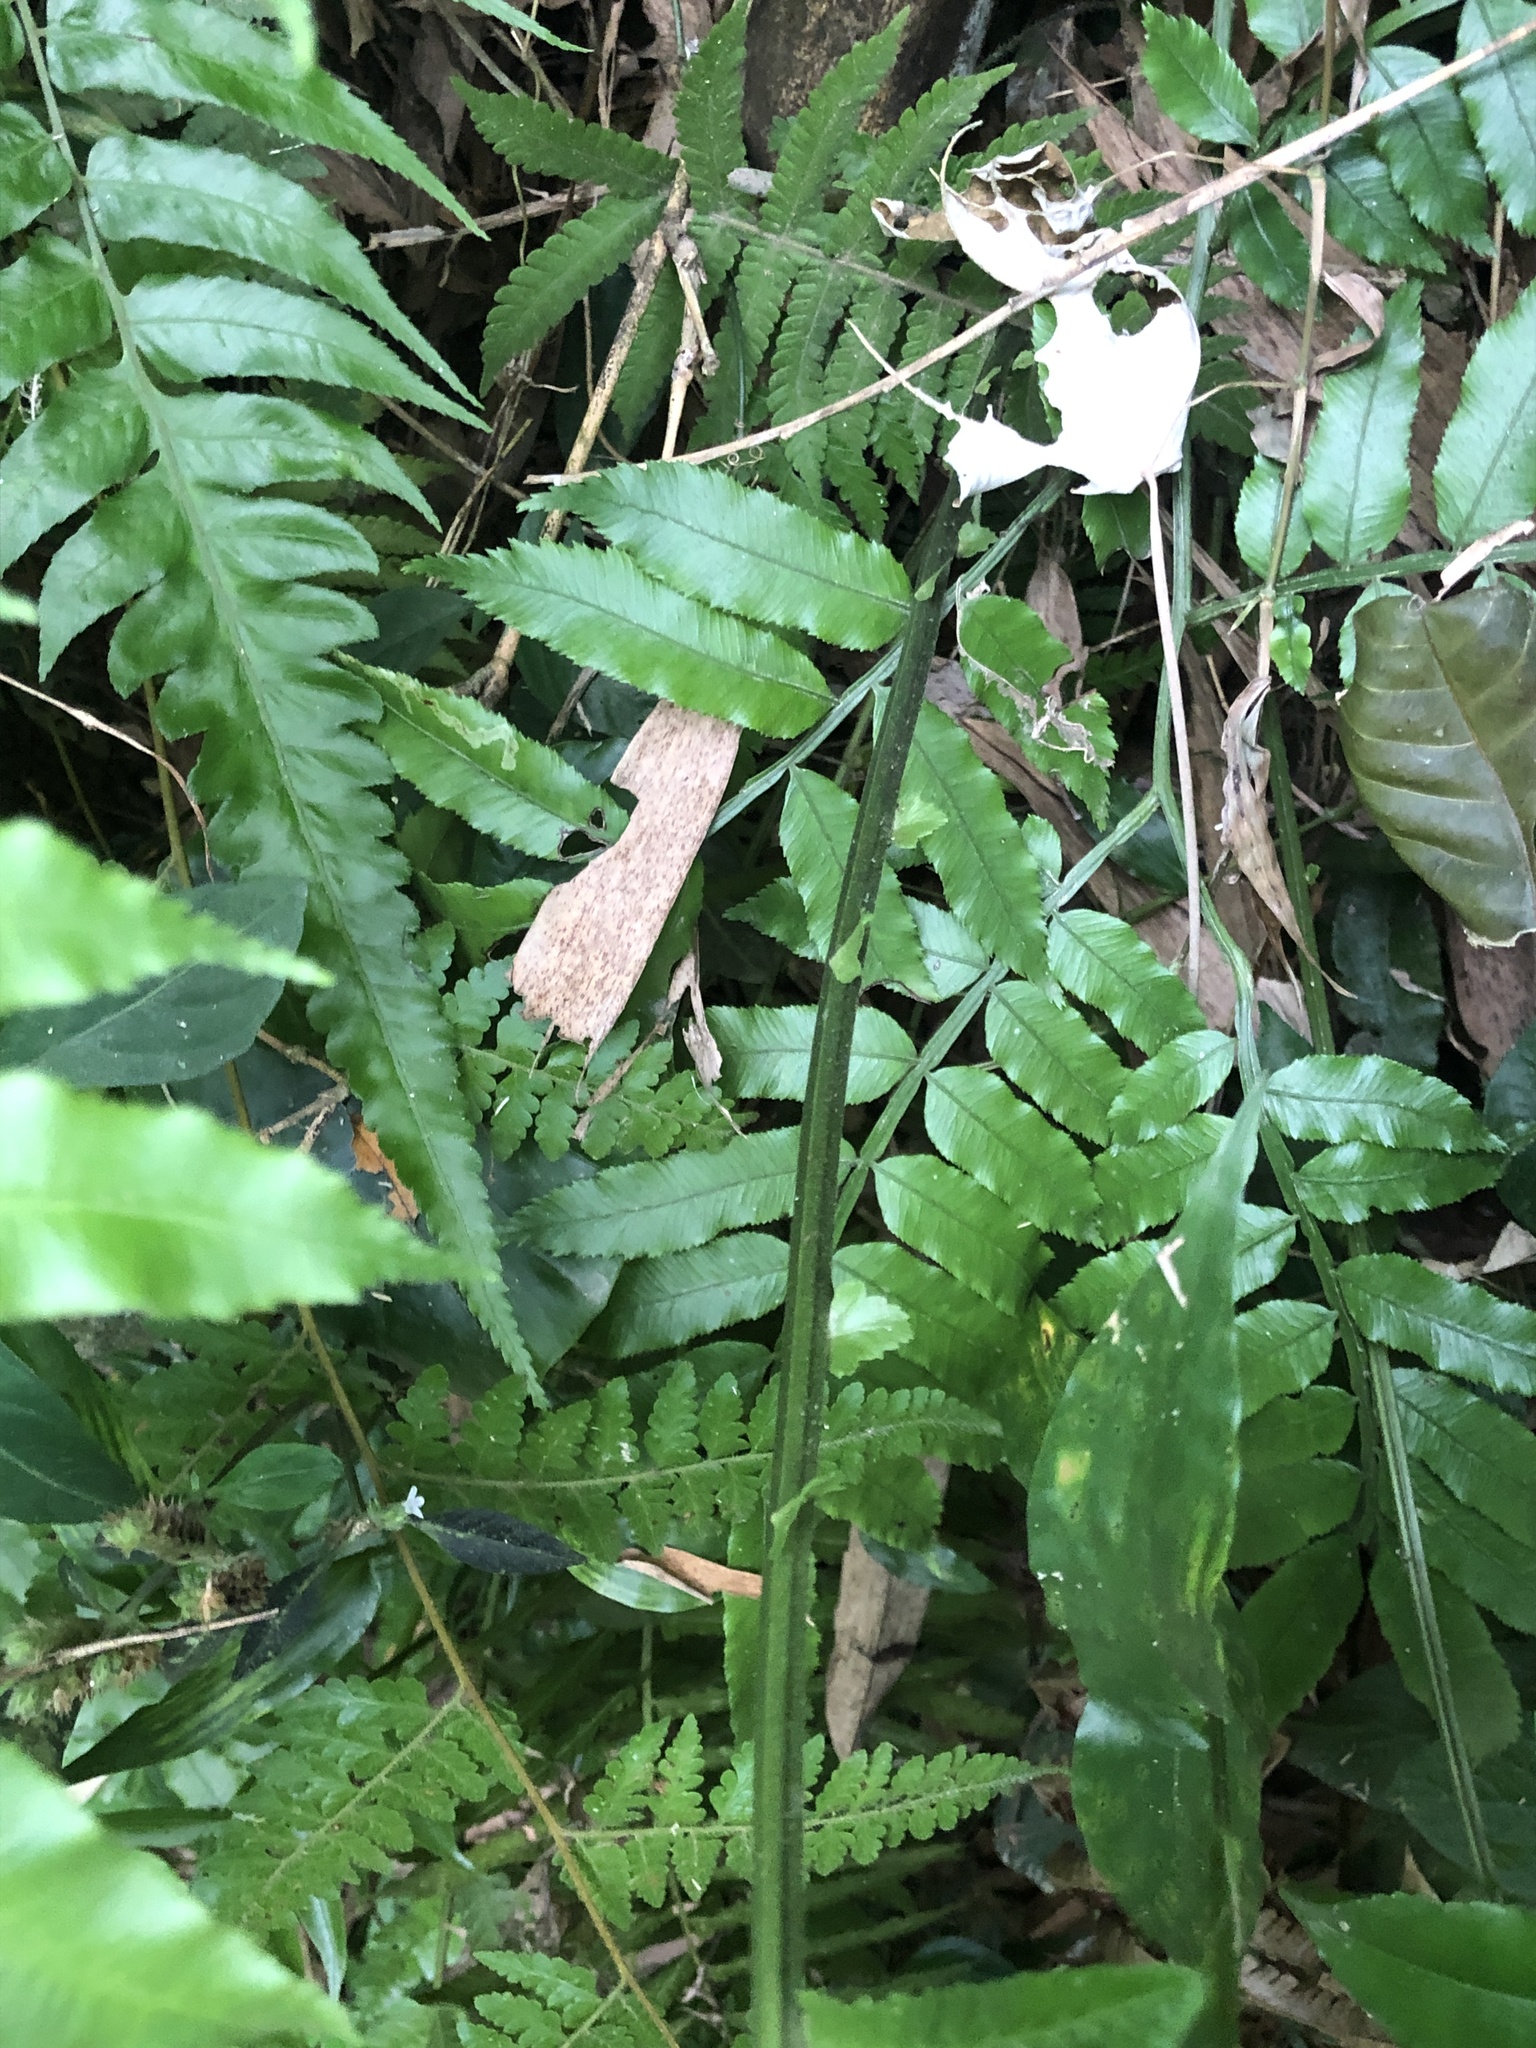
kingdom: Plantae
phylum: Tracheophyta
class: Polypodiopsida
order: Polypodiales
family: Thelypteridaceae
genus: Reholttumia
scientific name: Reholttumia truncata
